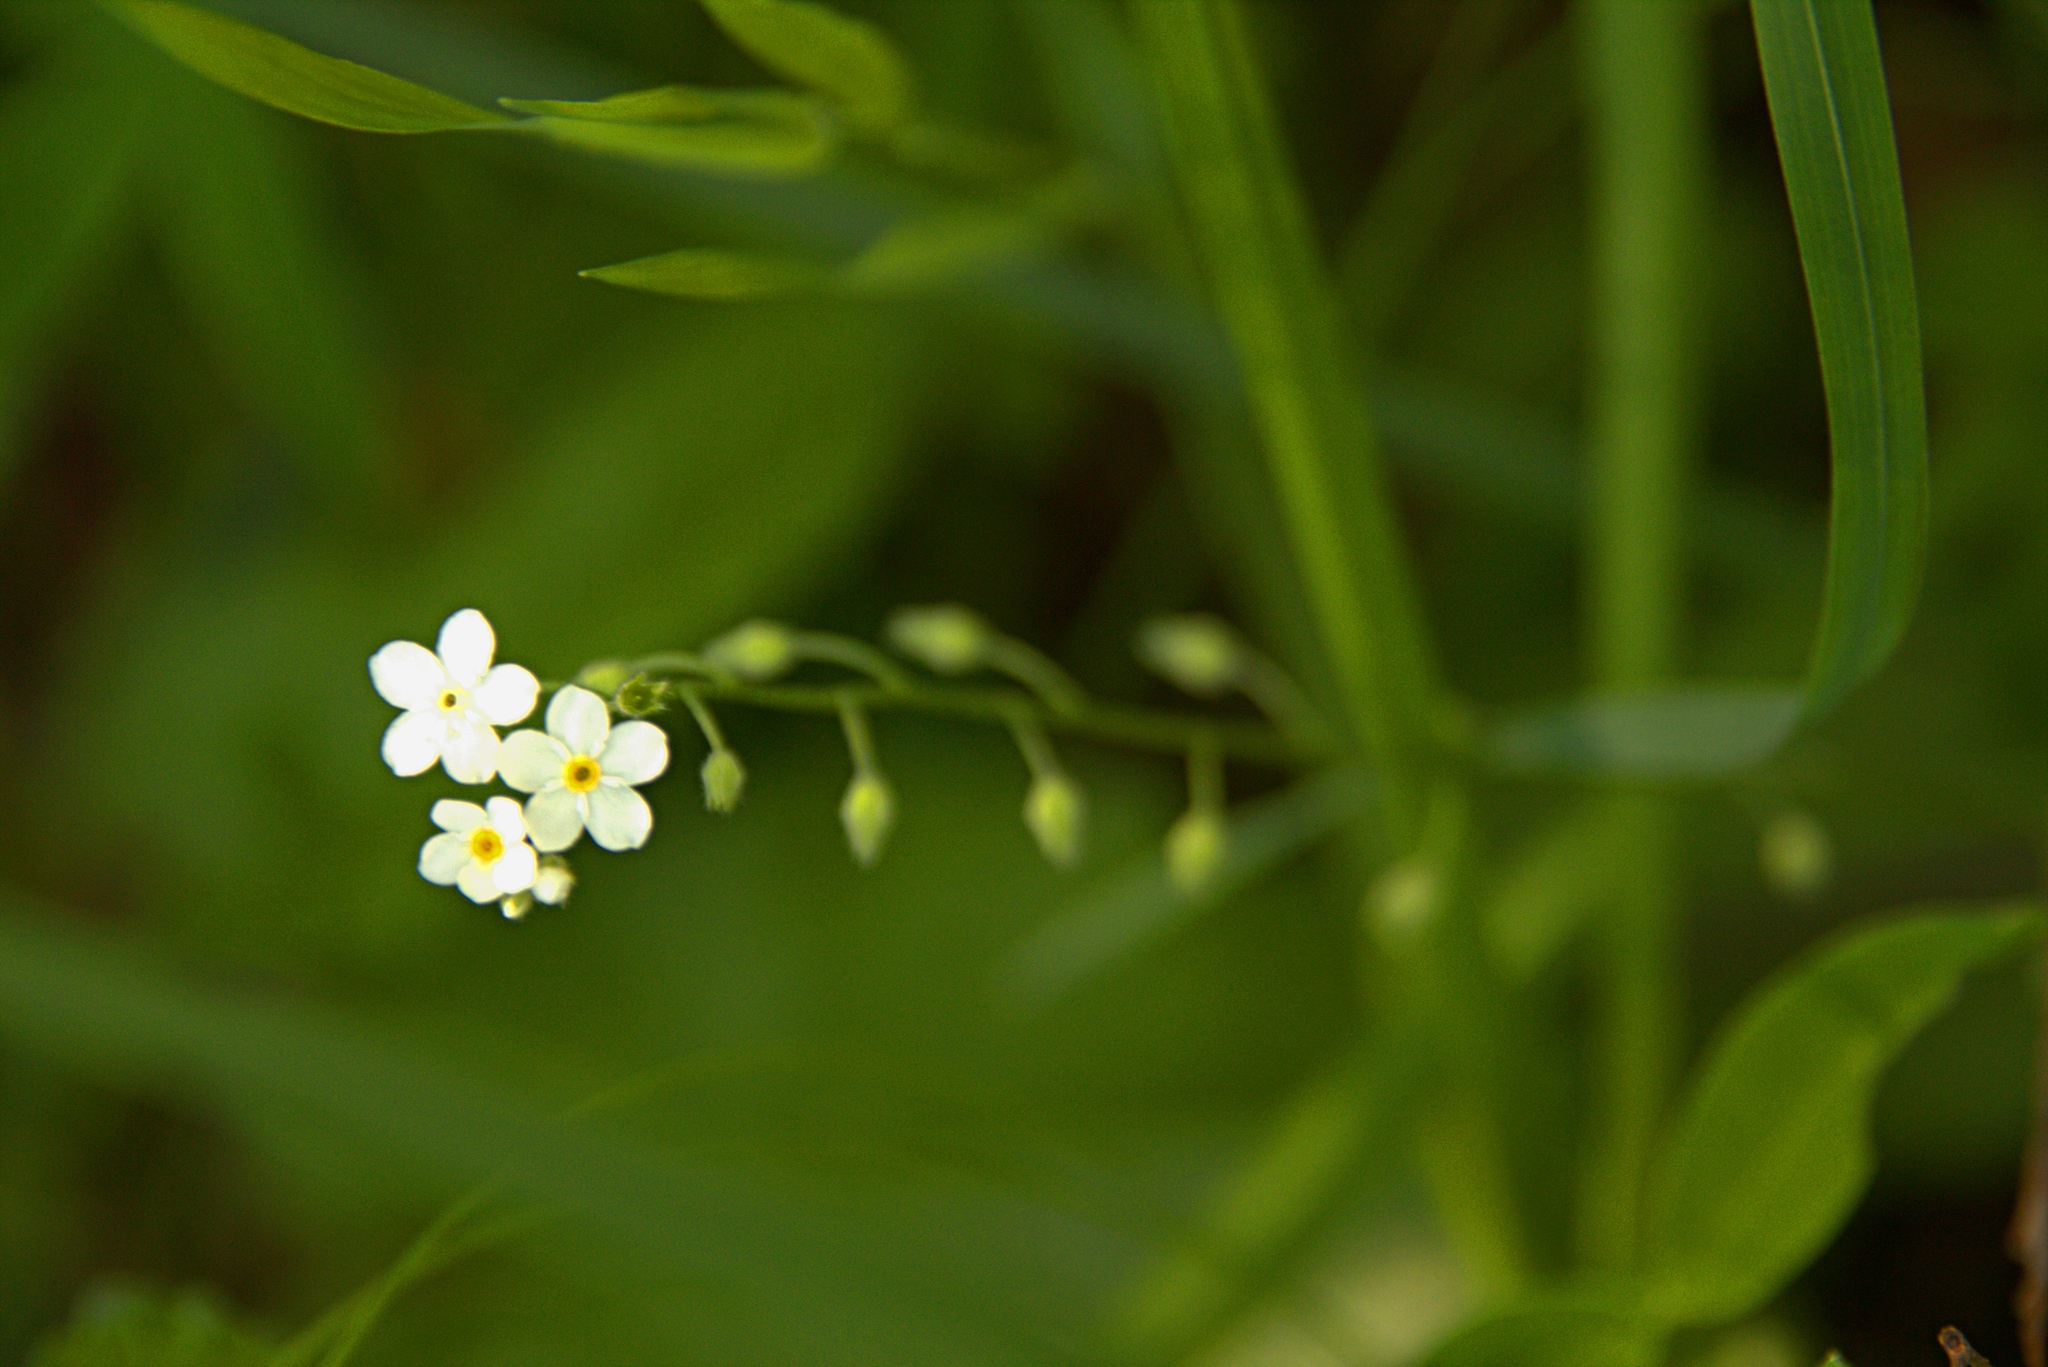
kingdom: Plantae
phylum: Tracheophyta
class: Magnoliopsida
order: Boraginales
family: Boraginaceae
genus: Myosotis
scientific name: Myosotis sylvatica
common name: Wood forget-me-not
